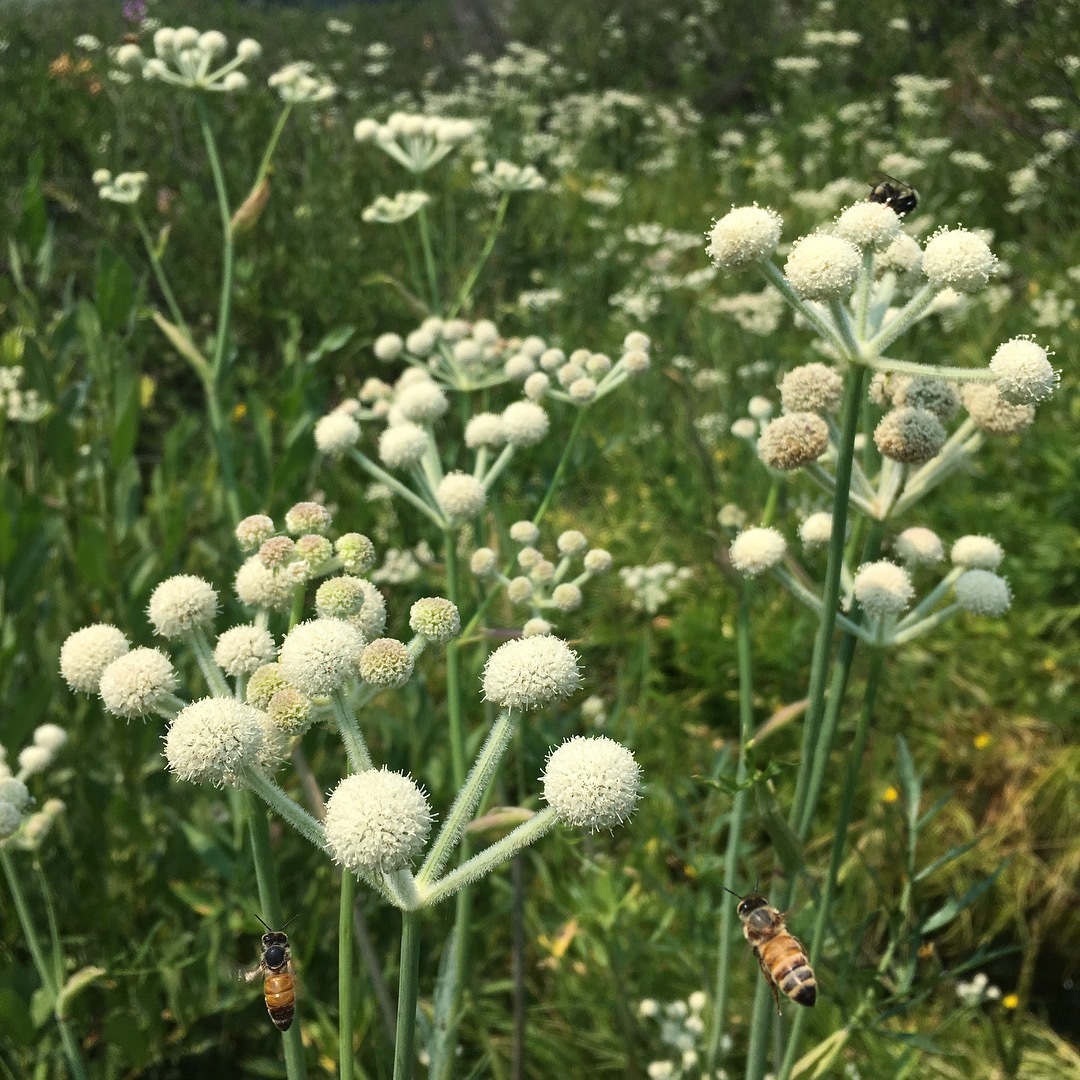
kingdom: Plantae
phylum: Tracheophyta
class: Magnoliopsida
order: Apiales
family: Apiaceae
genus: Angelica
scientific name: Angelica capitellata
